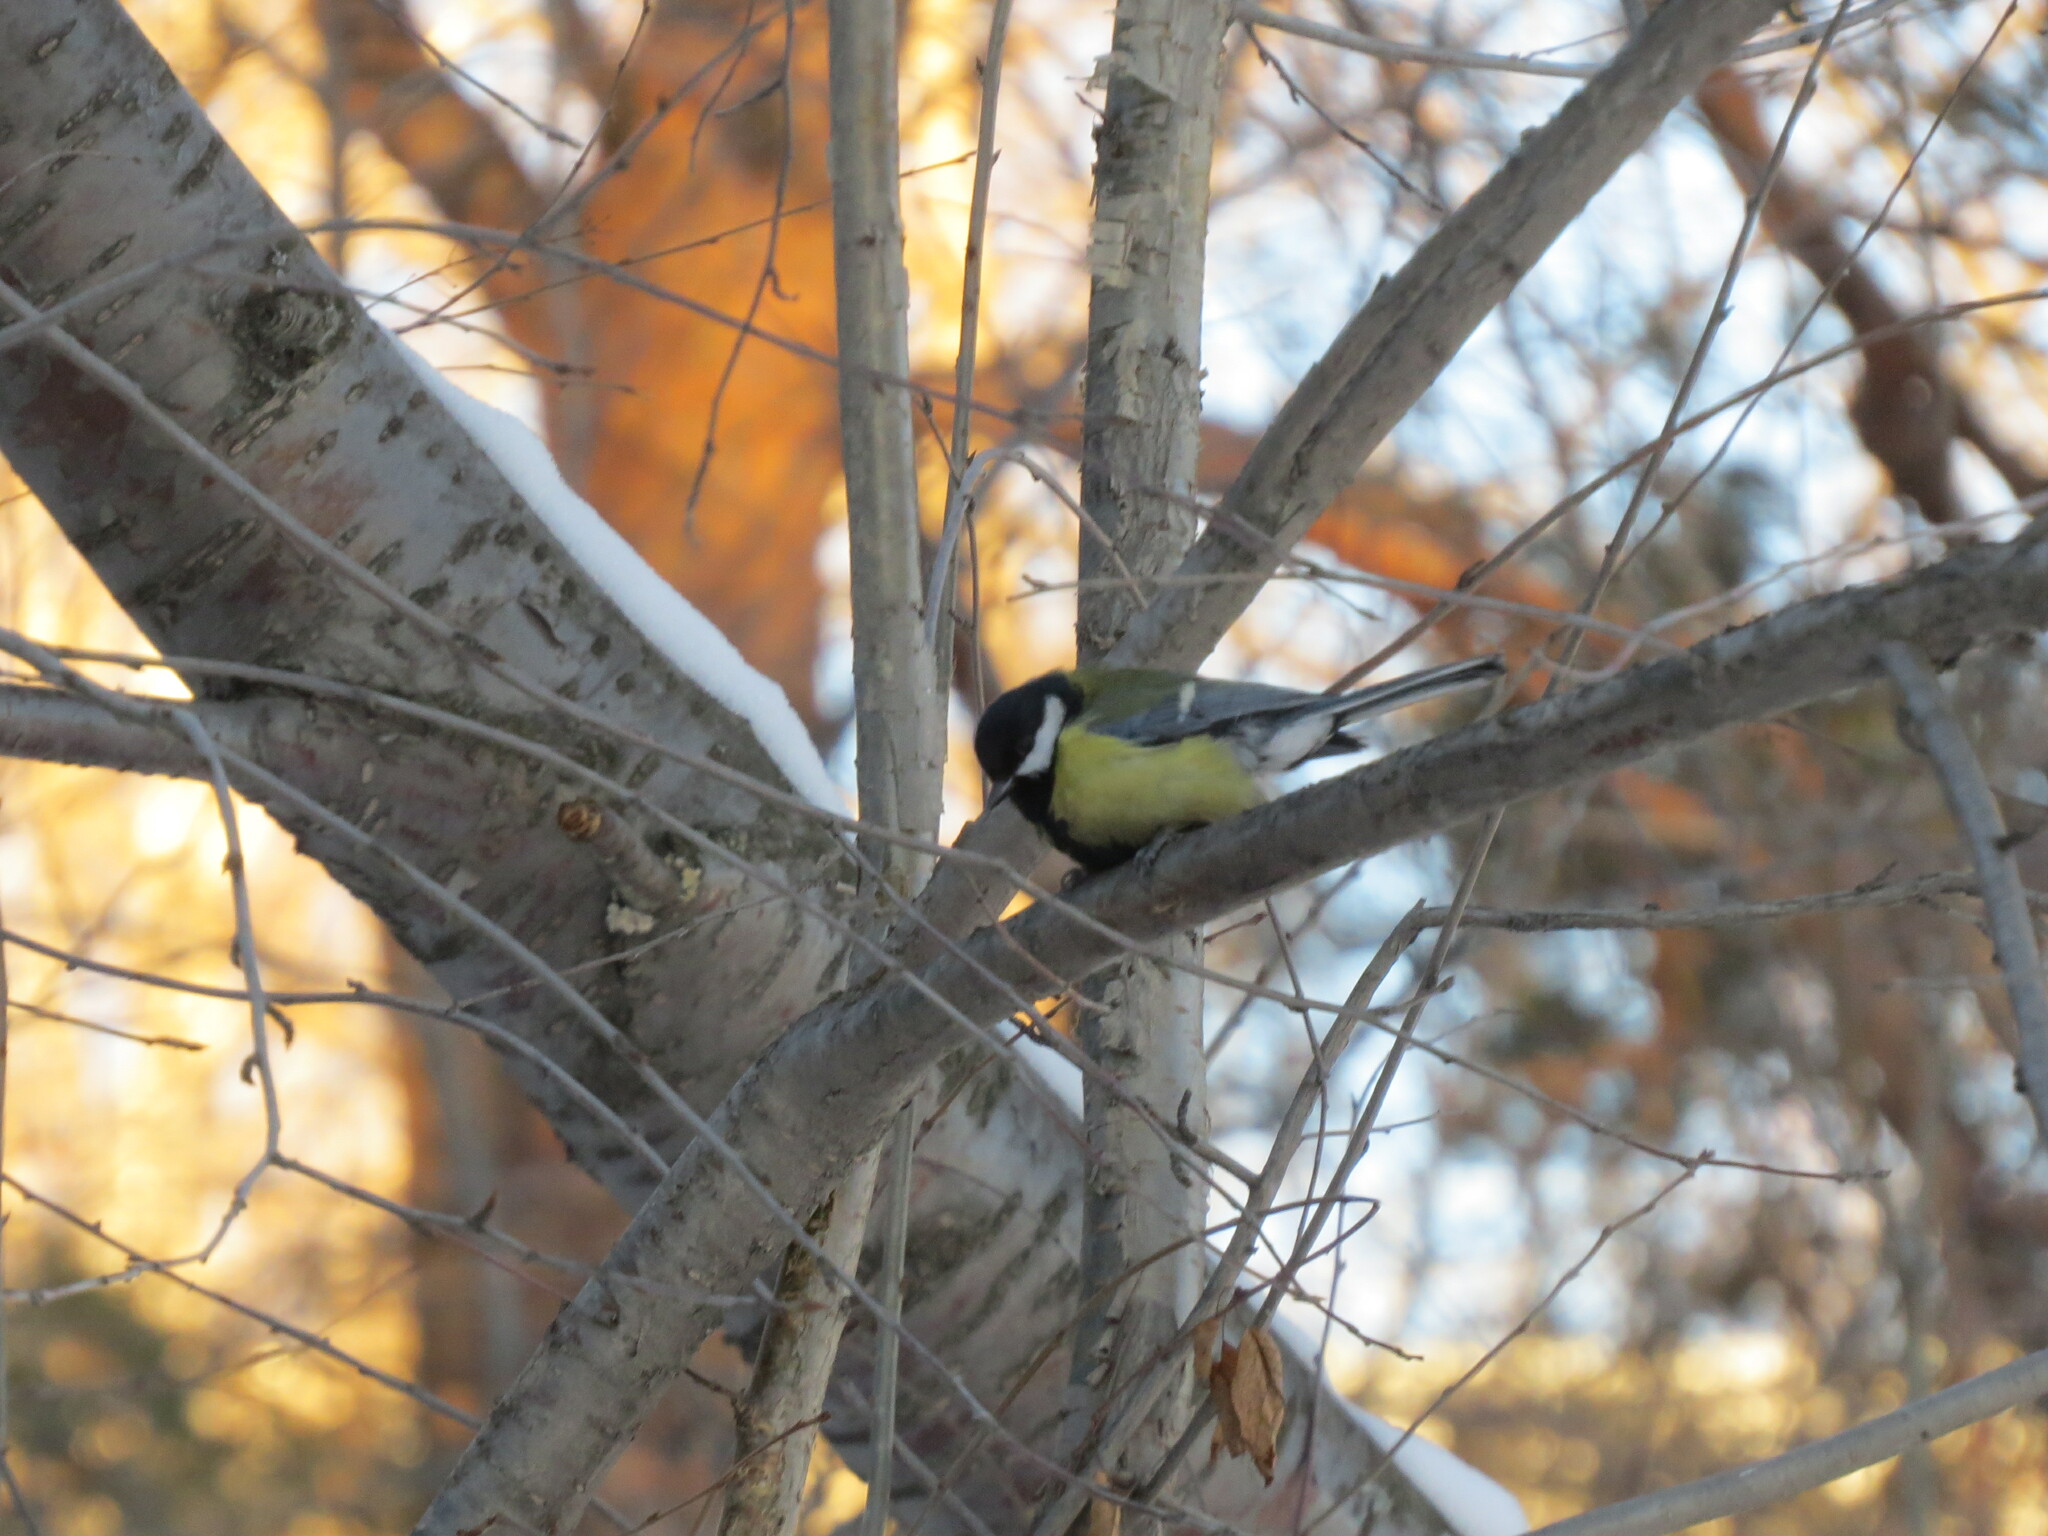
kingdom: Animalia
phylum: Chordata
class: Aves
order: Passeriformes
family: Paridae
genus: Parus
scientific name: Parus major
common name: Great tit
